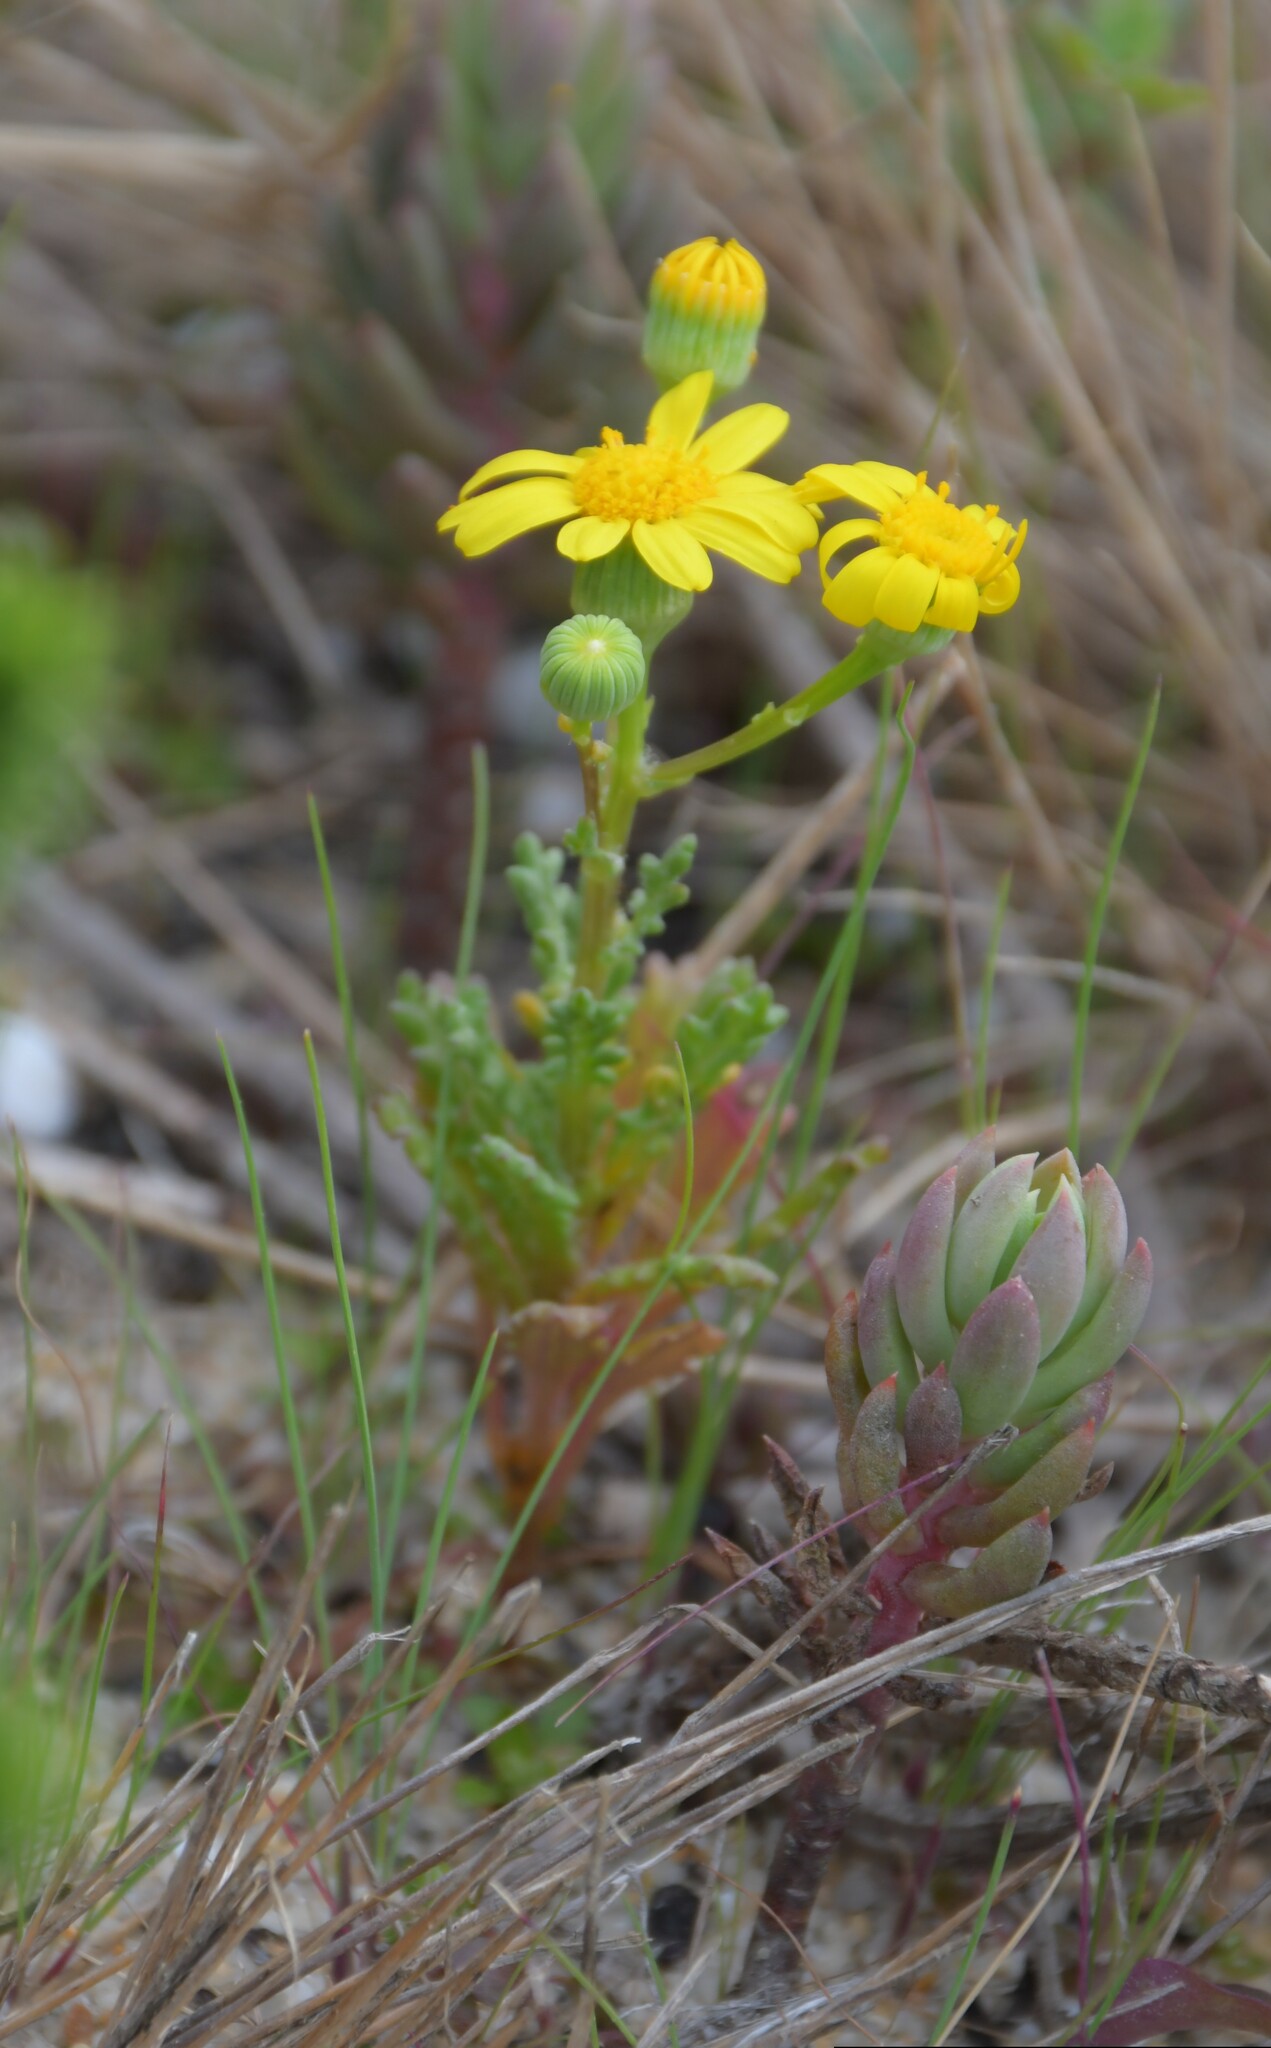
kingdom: Plantae
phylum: Tracheophyta
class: Magnoliopsida
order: Asterales
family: Asteraceae
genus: Senecio
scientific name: Senecio gallicus
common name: French groundsel
